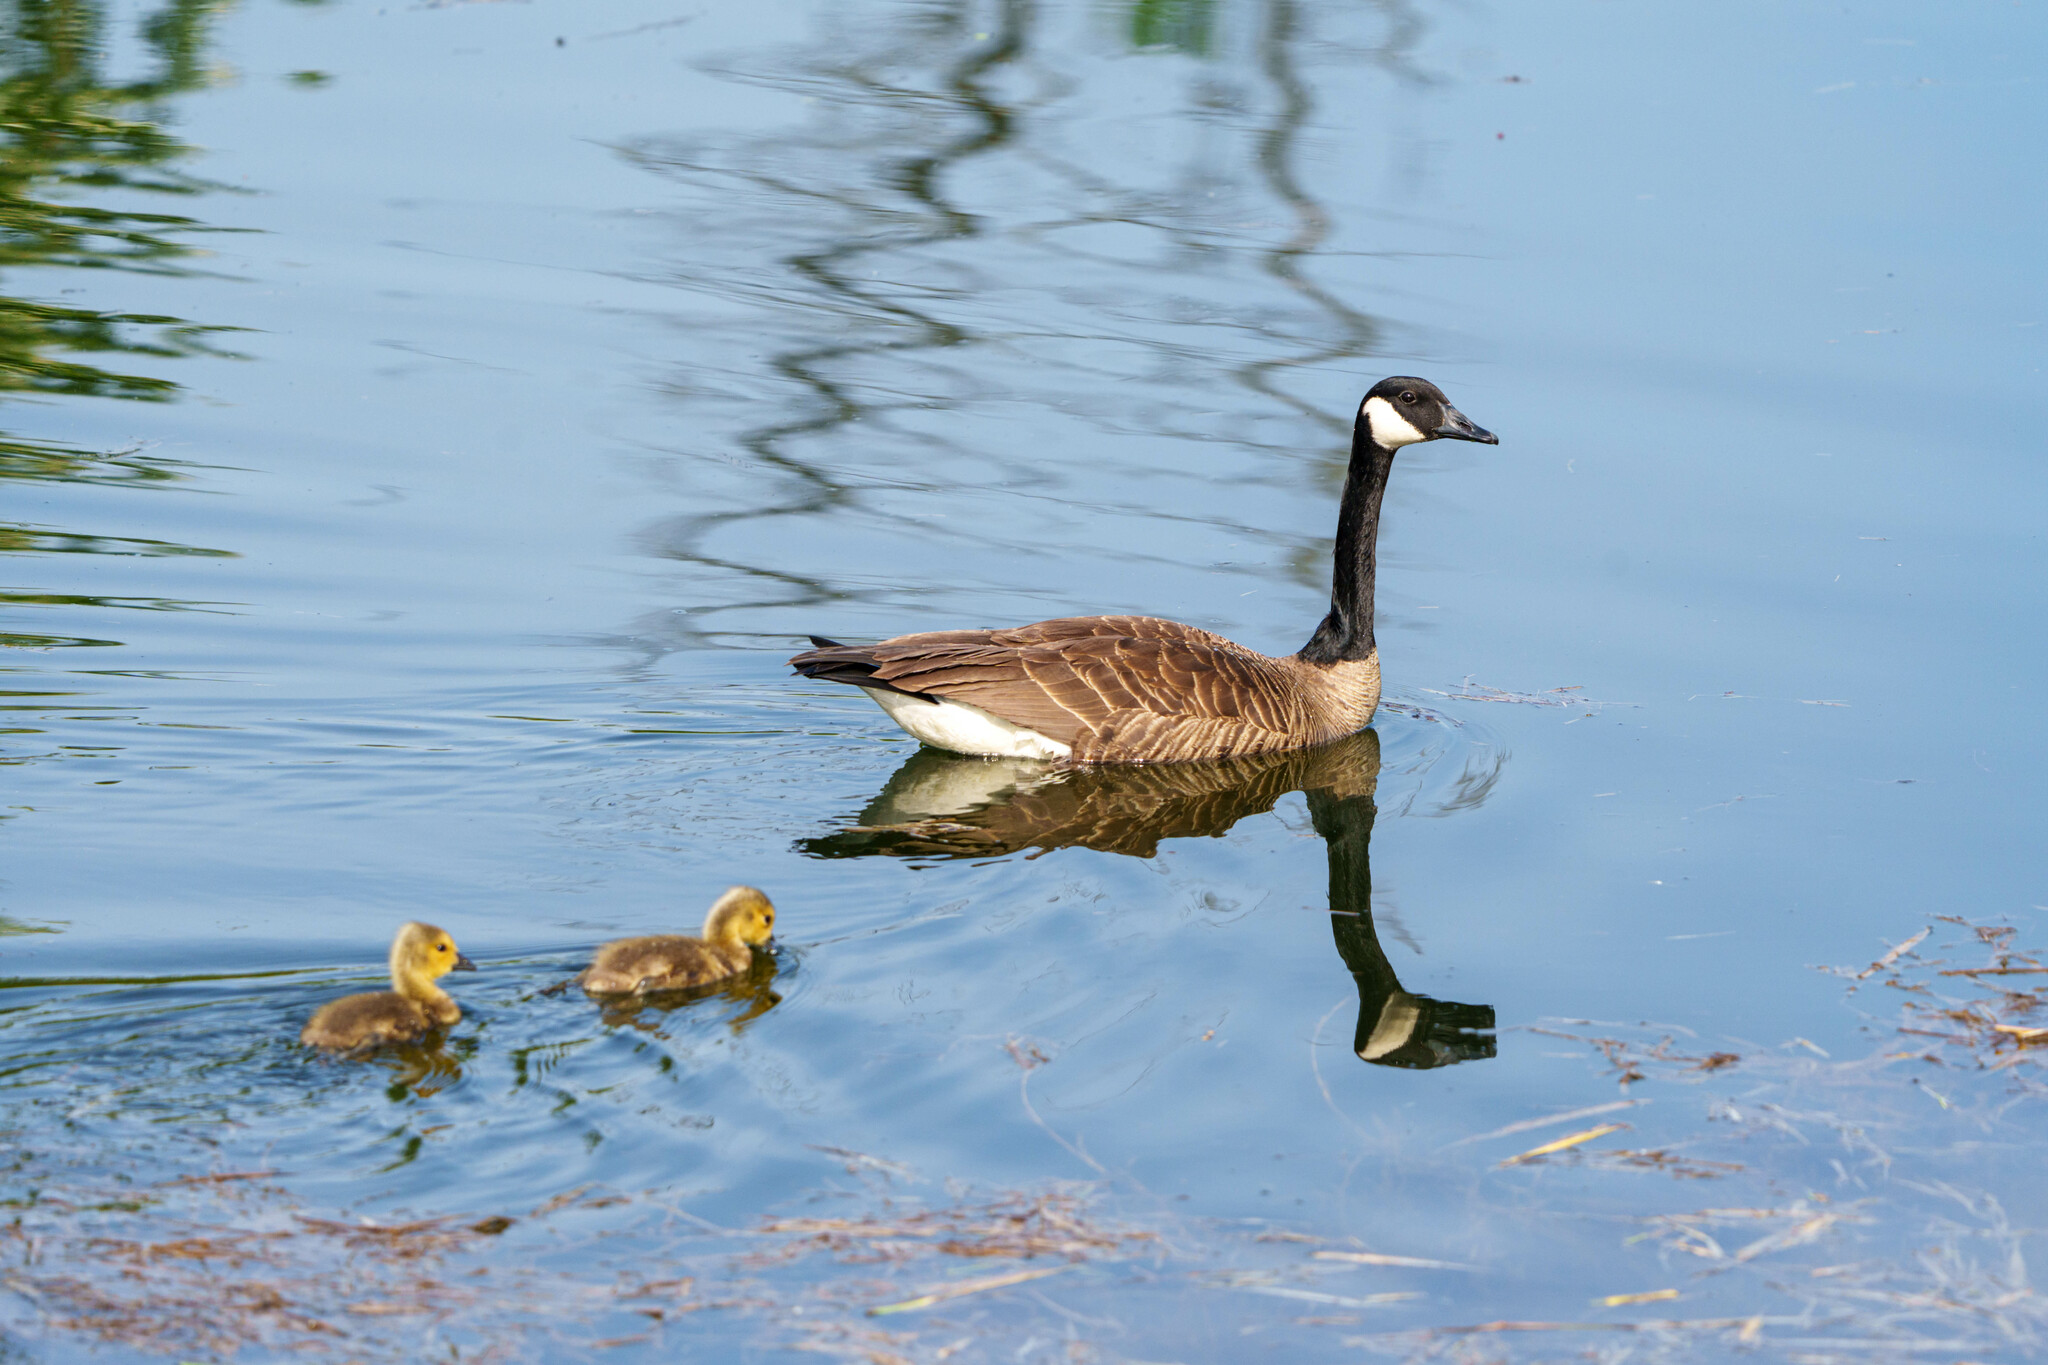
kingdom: Animalia
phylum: Chordata
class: Aves
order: Anseriformes
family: Anatidae
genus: Branta
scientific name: Branta canadensis
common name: Canada goose
